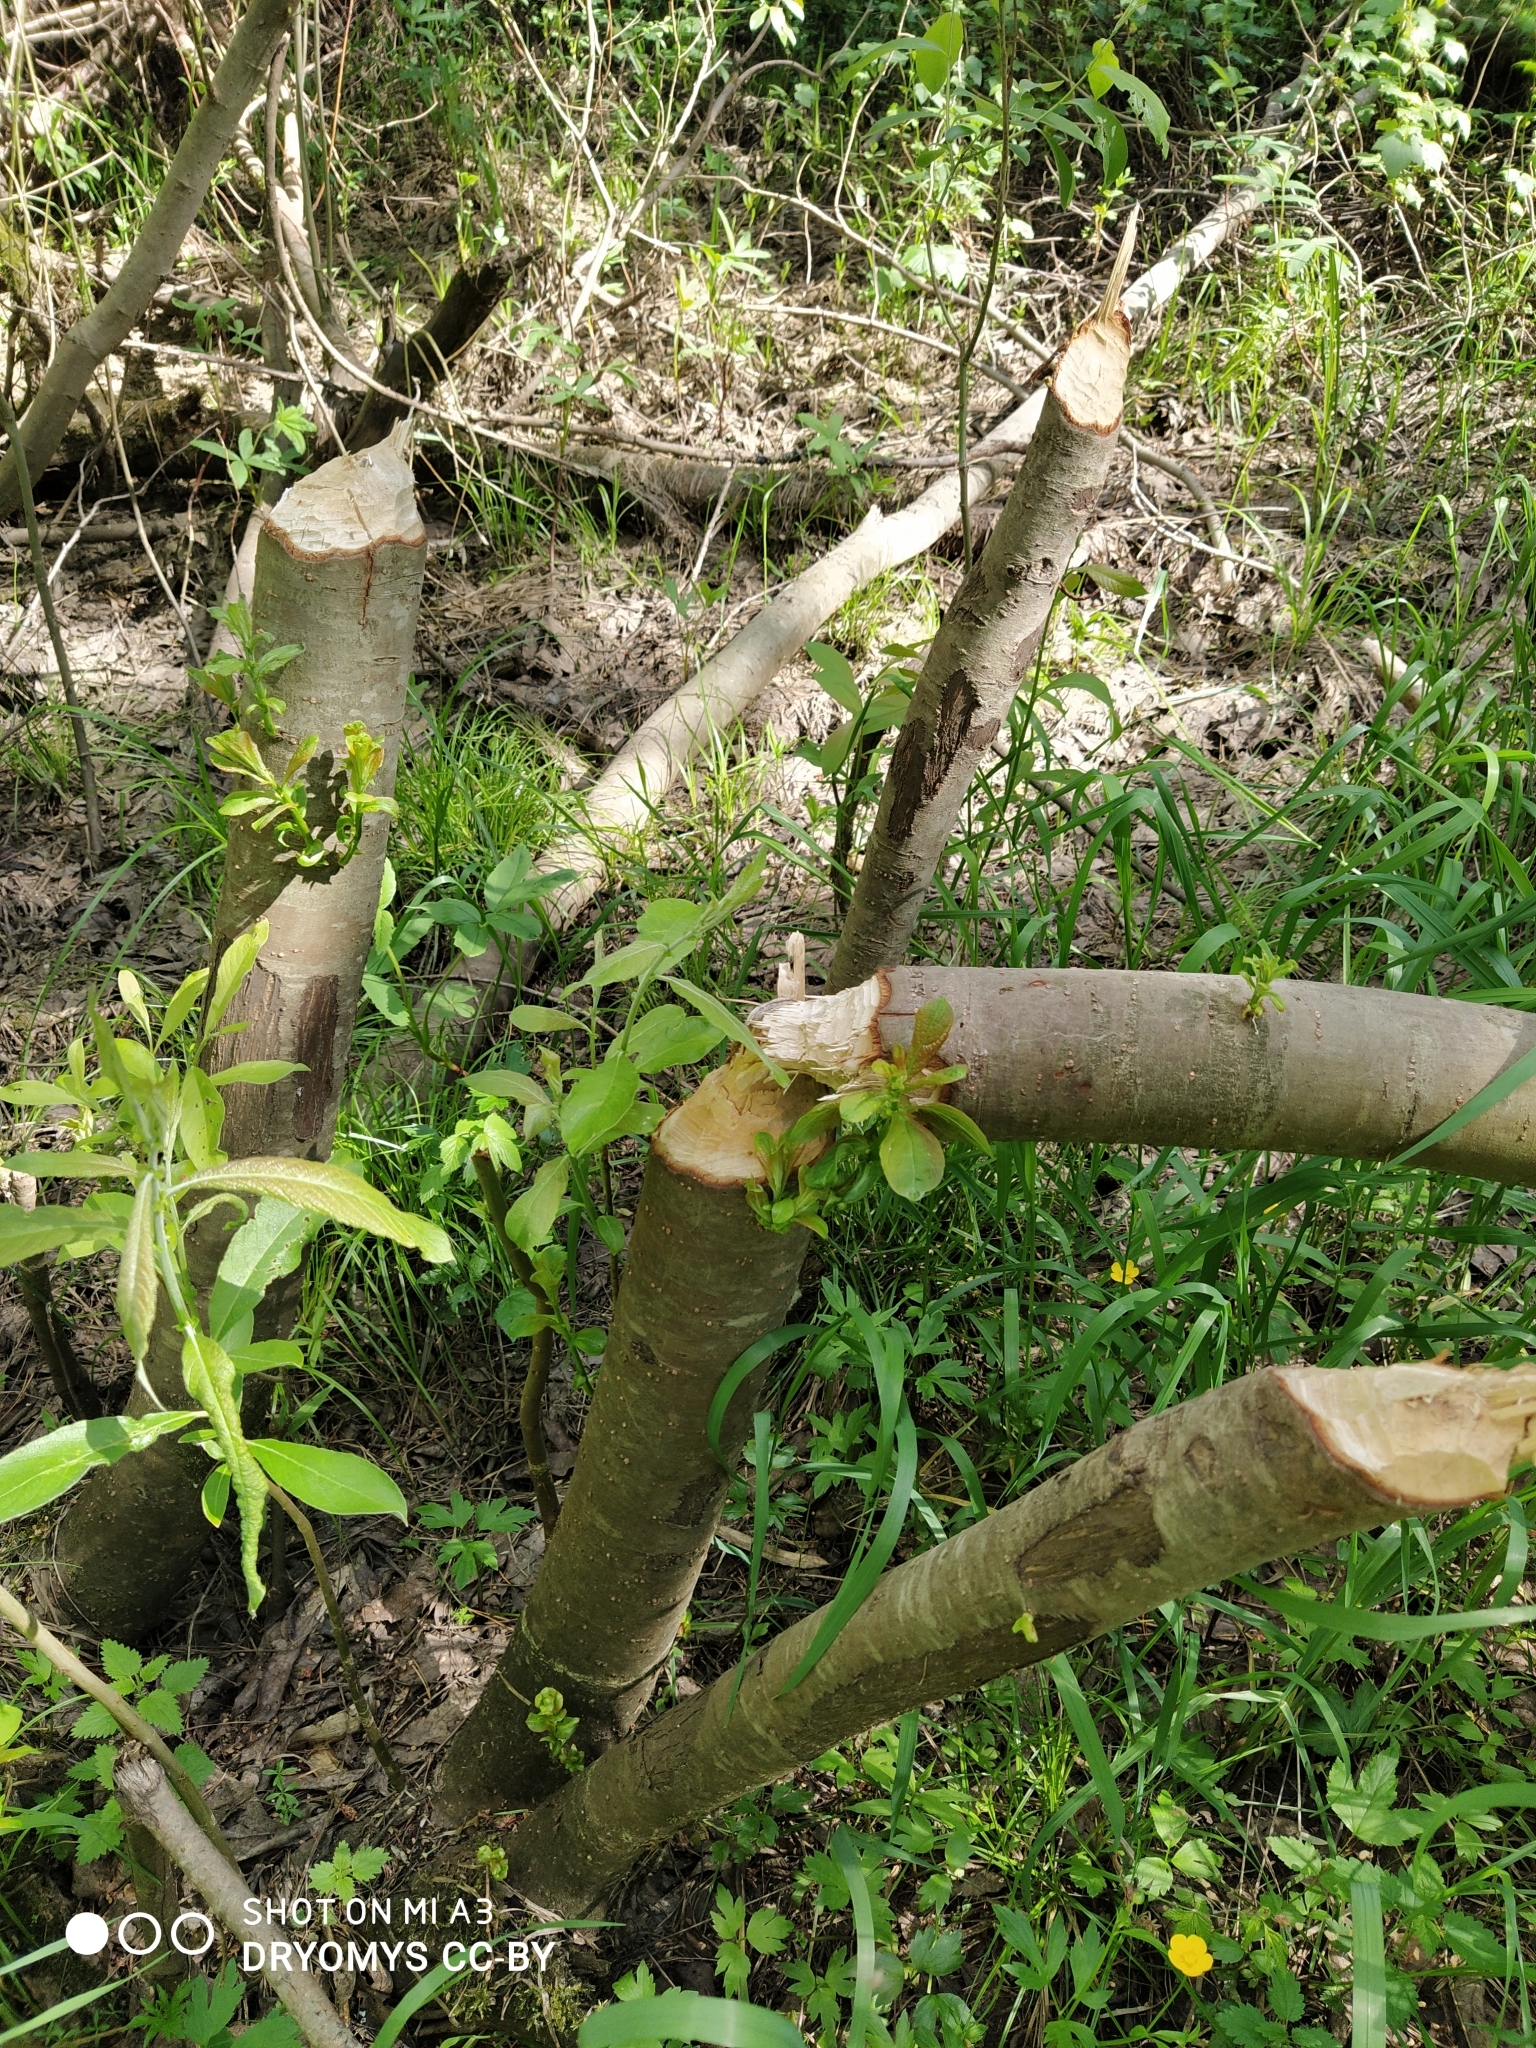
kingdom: Animalia
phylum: Chordata
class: Mammalia
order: Rodentia
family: Castoridae
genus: Castor
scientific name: Castor fiber
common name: Eurasian beaver
